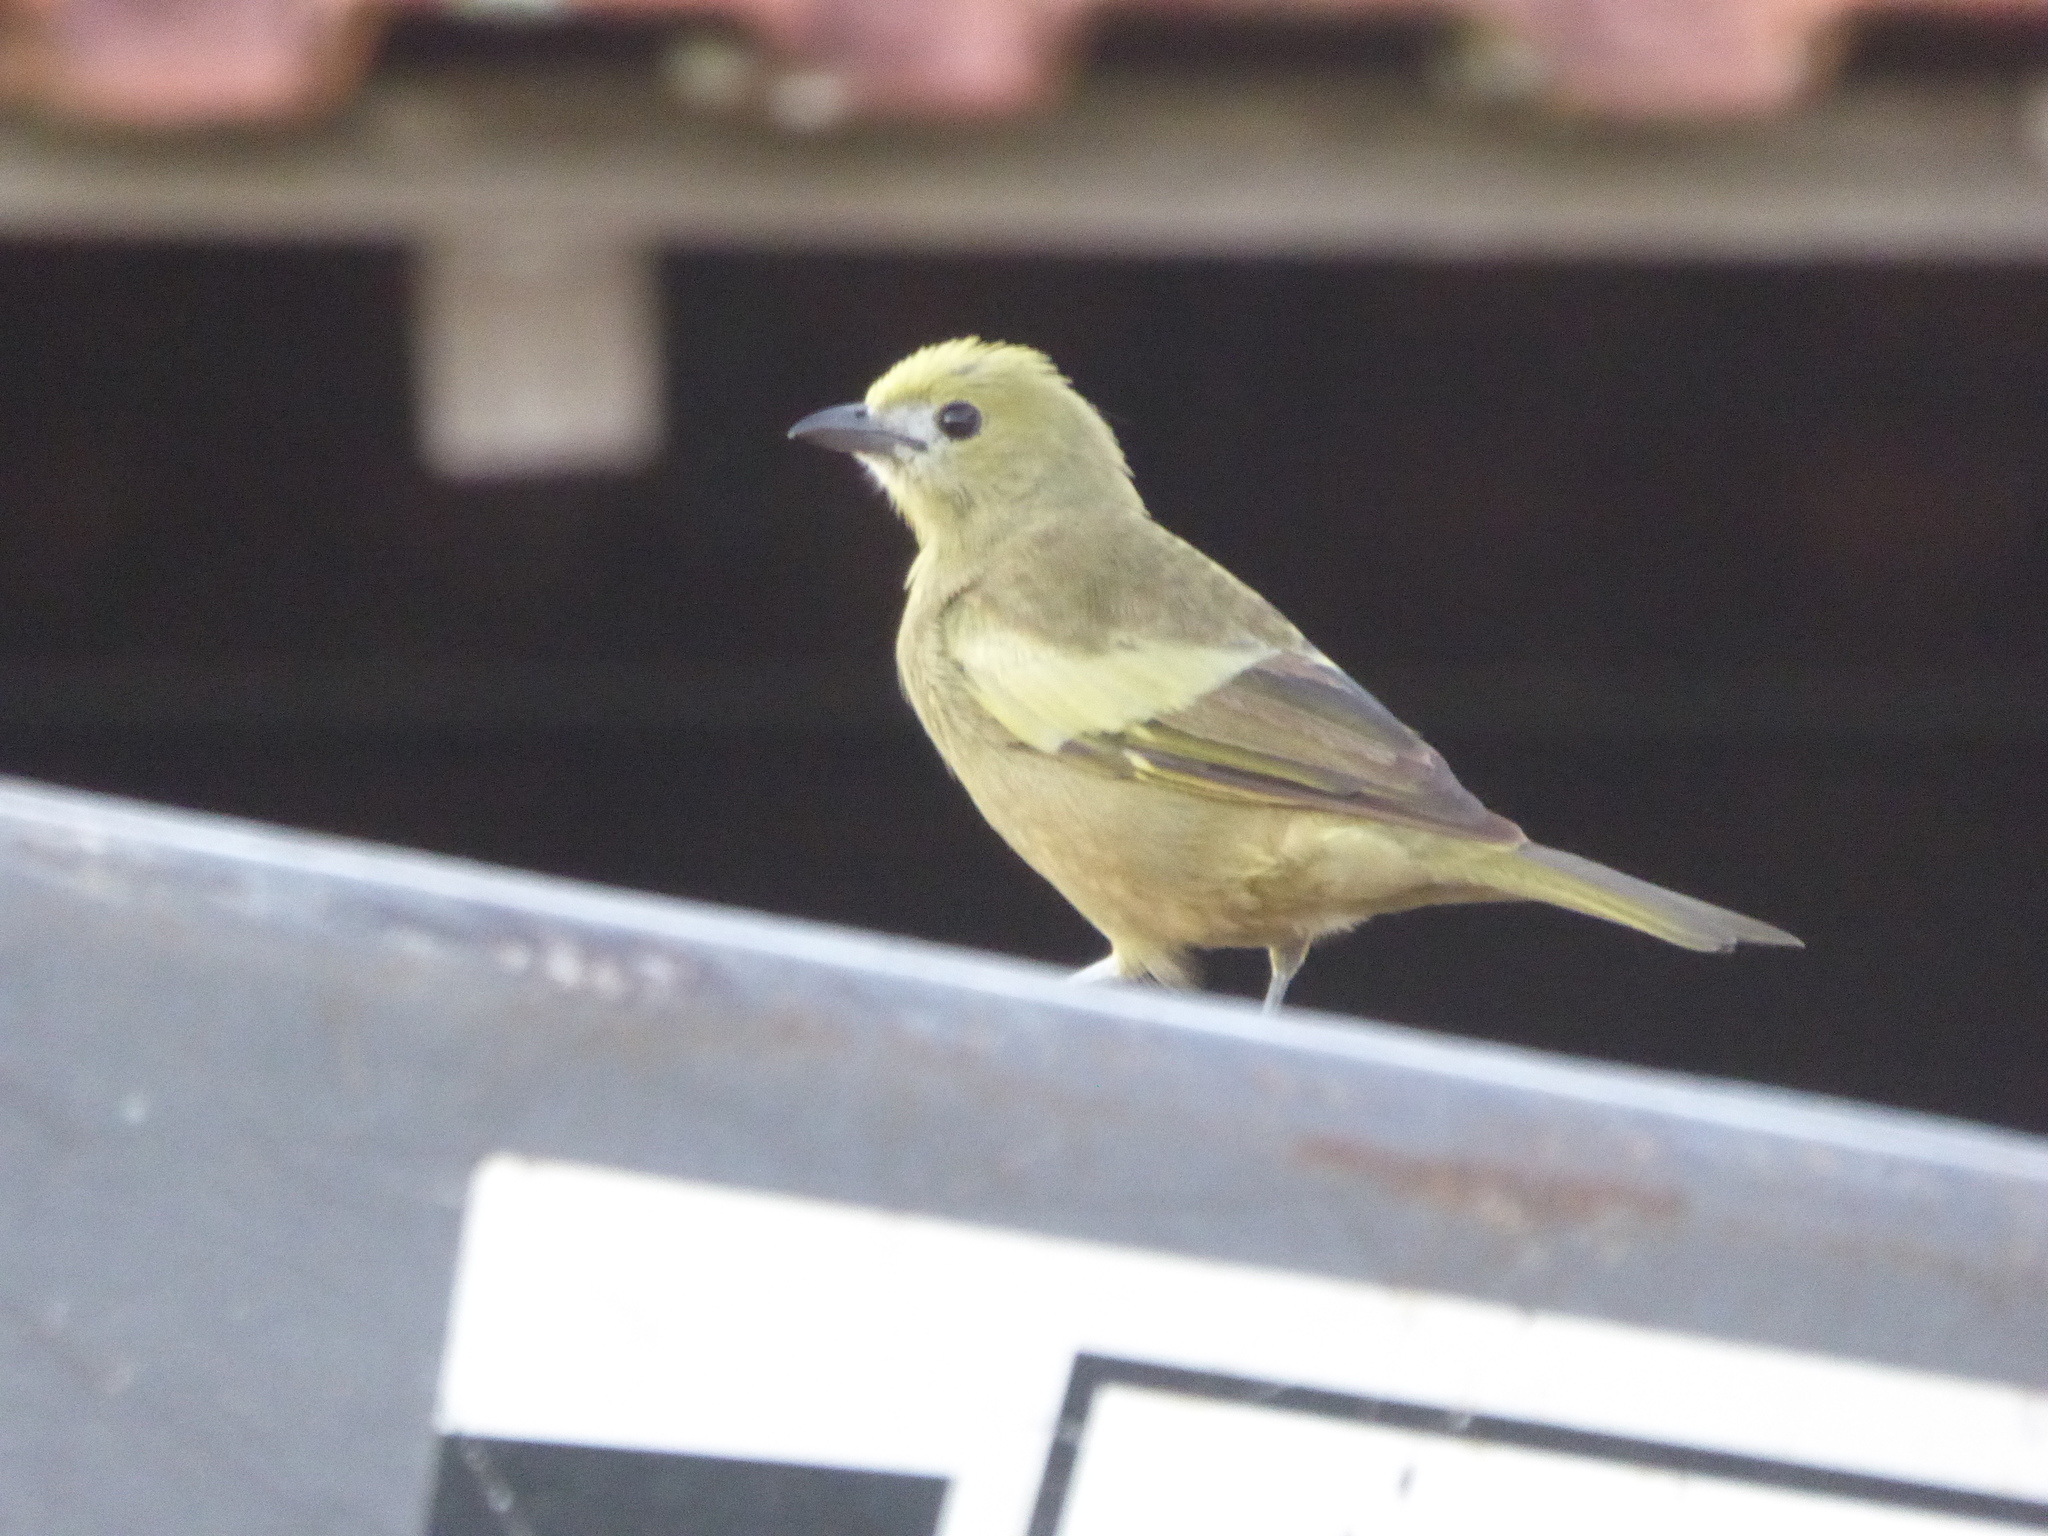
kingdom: Animalia
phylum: Chordata
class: Aves
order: Passeriformes
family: Thraupidae
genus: Thraupis
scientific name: Thraupis palmarum
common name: Palm tanager
